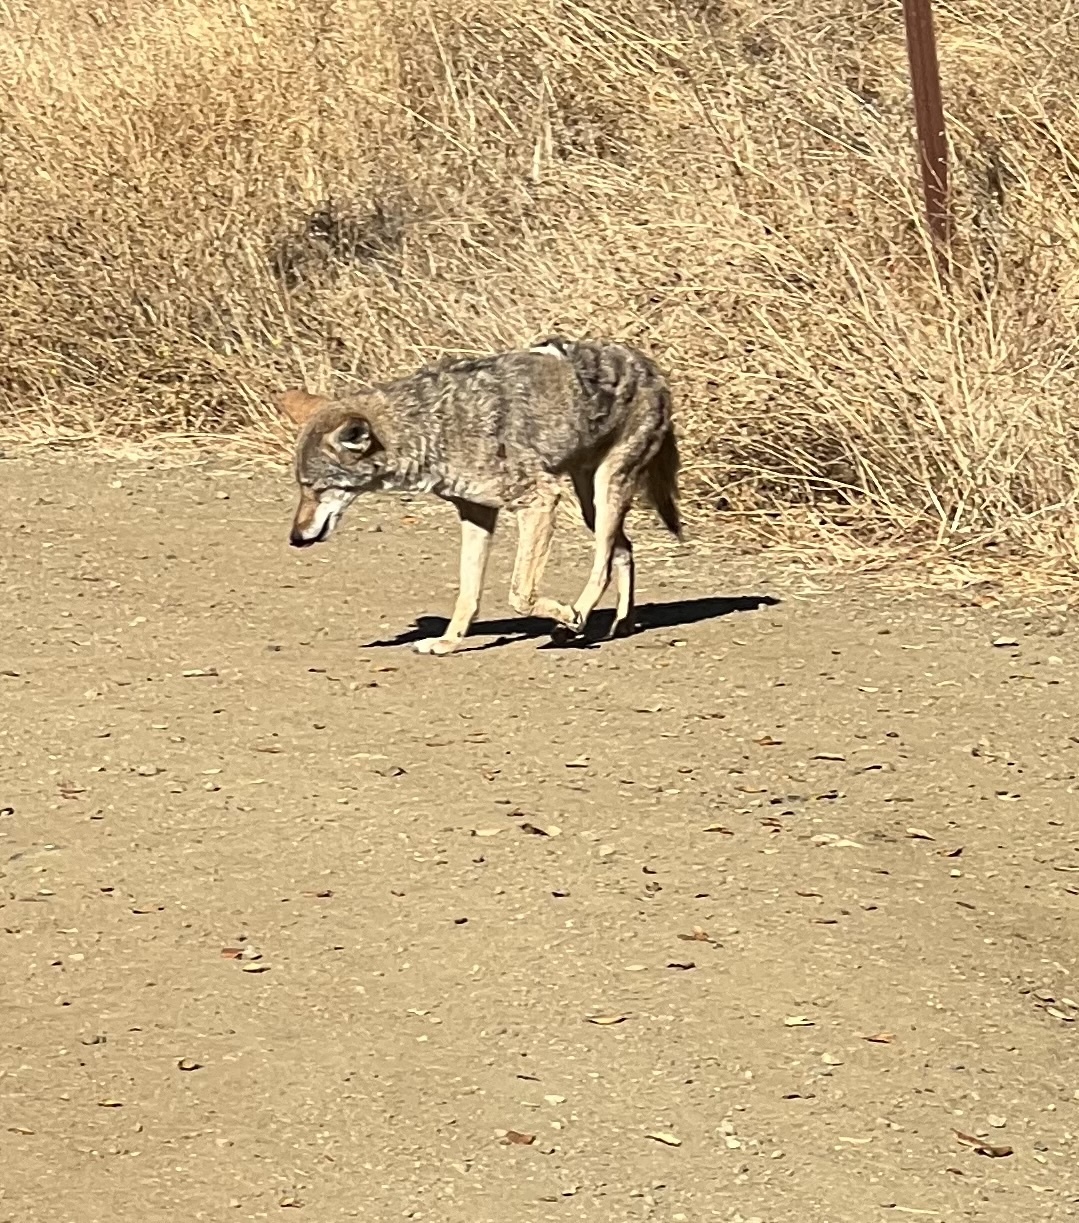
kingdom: Animalia
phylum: Chordata
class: Mammalia
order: Carnivora
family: Canidae
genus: Canis
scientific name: Canis latrans
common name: Coyote
